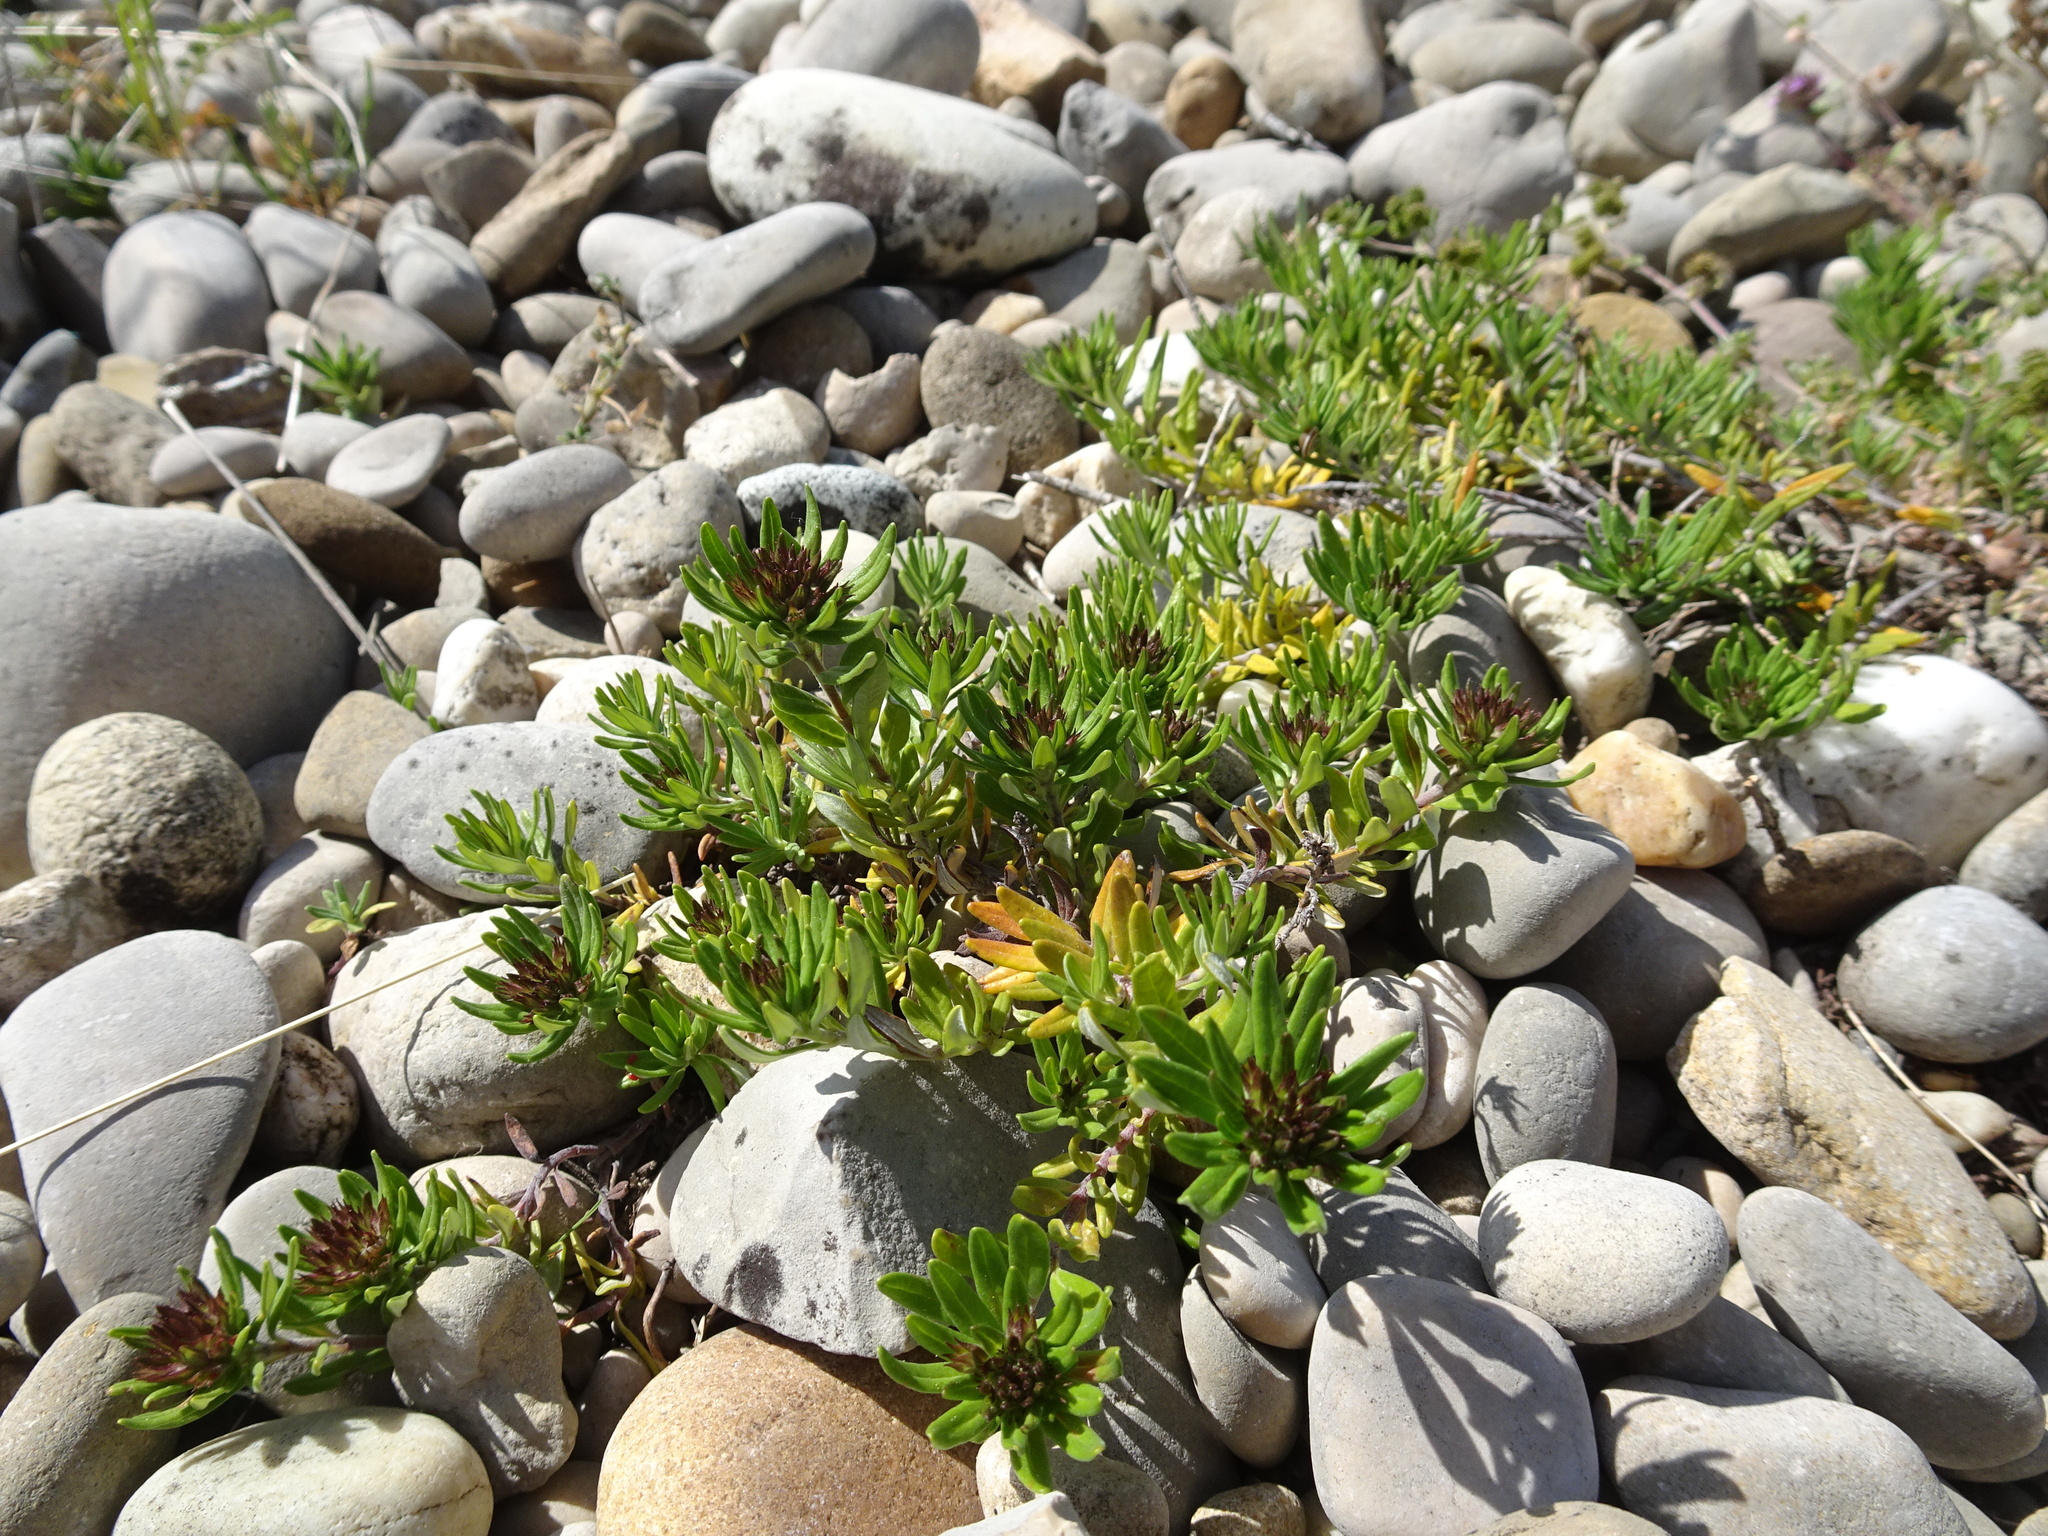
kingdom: Plantae
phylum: Tracheophyta
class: Magnoliopsida
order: Lamiales
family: Lamiaceae
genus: Teucrium
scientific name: Teucrium montanum
